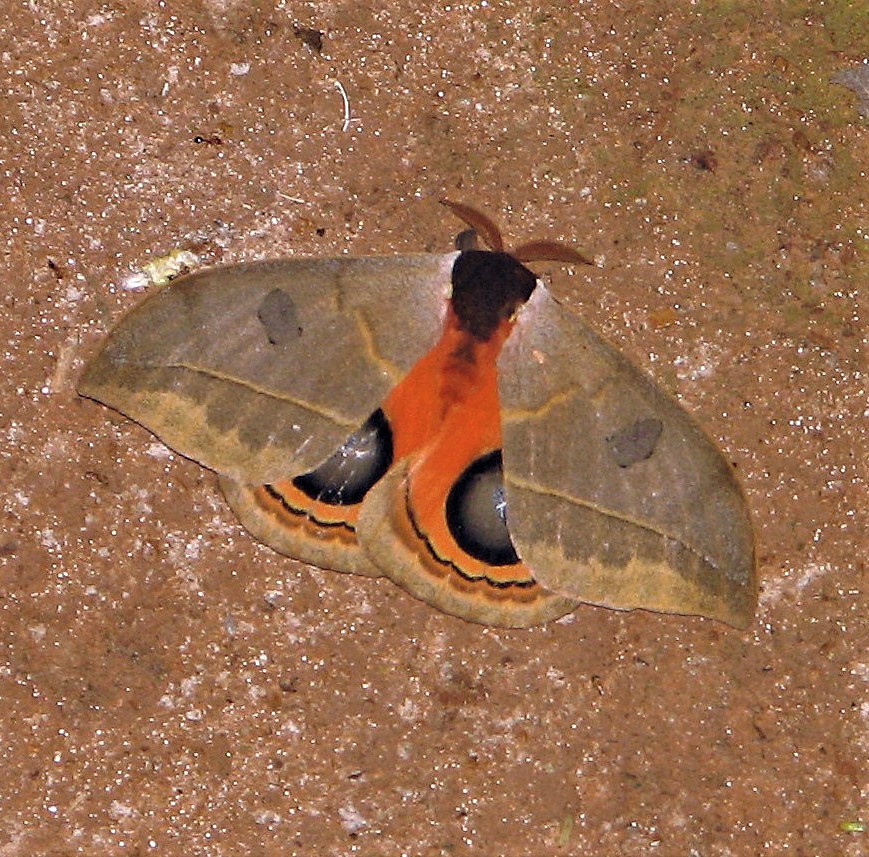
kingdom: Animalia
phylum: Arthropoda
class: Insecta
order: Lepidoptera
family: Saturniidae
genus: Automeris
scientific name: Automeris illustris
